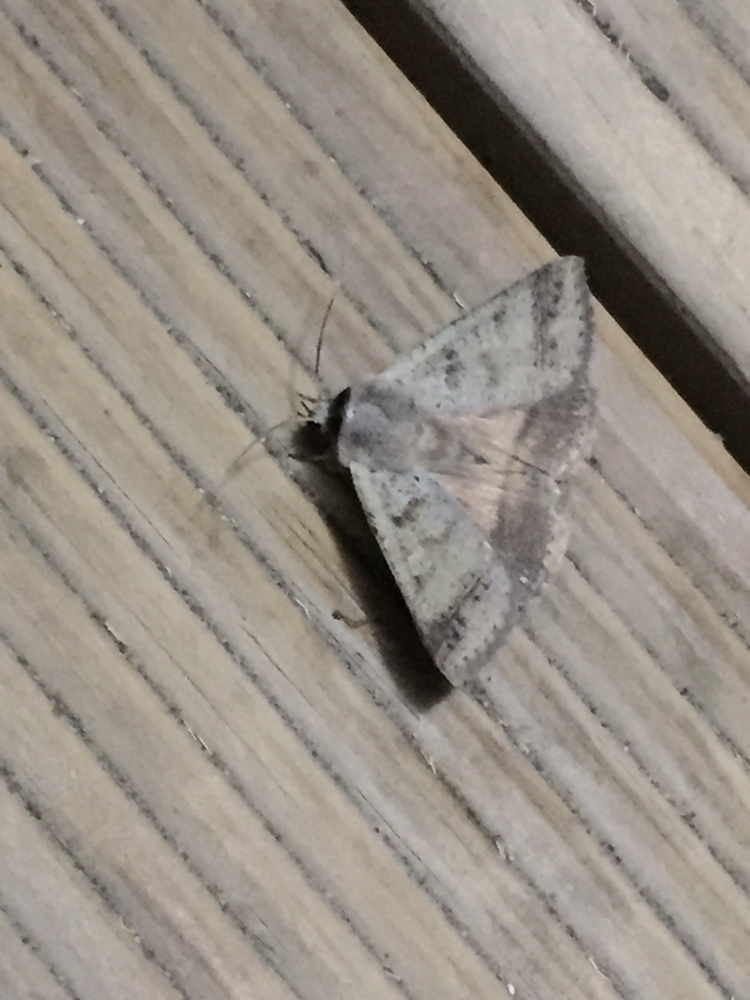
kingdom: Animalia
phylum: Arthropoda
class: Insecta
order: Lepidoptera
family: Erebidae
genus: Pantydia
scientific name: Pantydia sparsa
